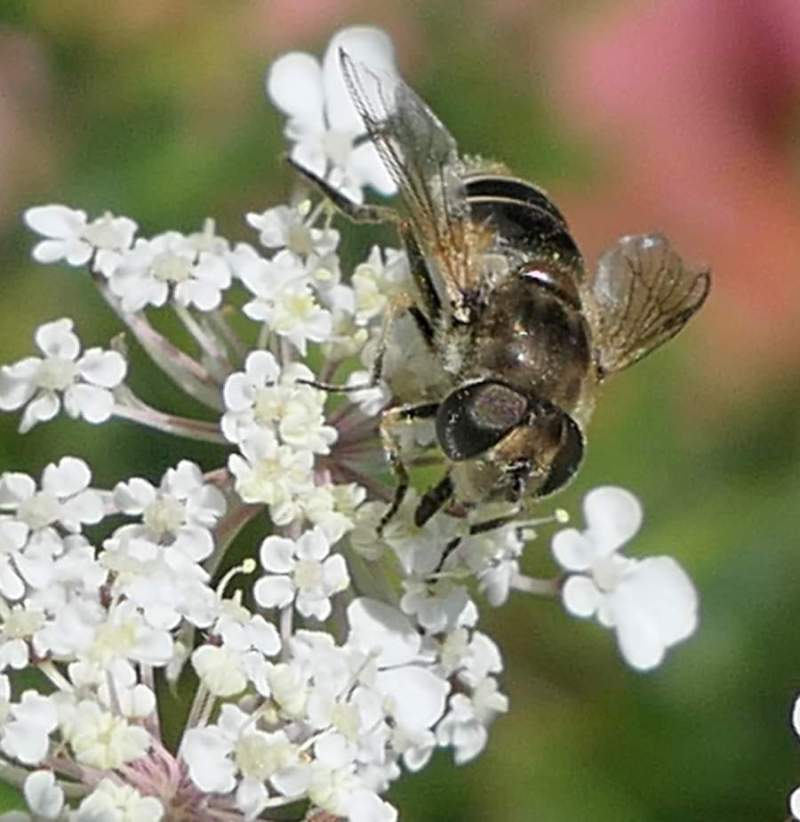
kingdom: Animalia
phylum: Arthropoda
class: Insecta
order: Diptera
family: Syrphidae
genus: Eristalis
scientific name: Eristalis arbustorum
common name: Hover fly
